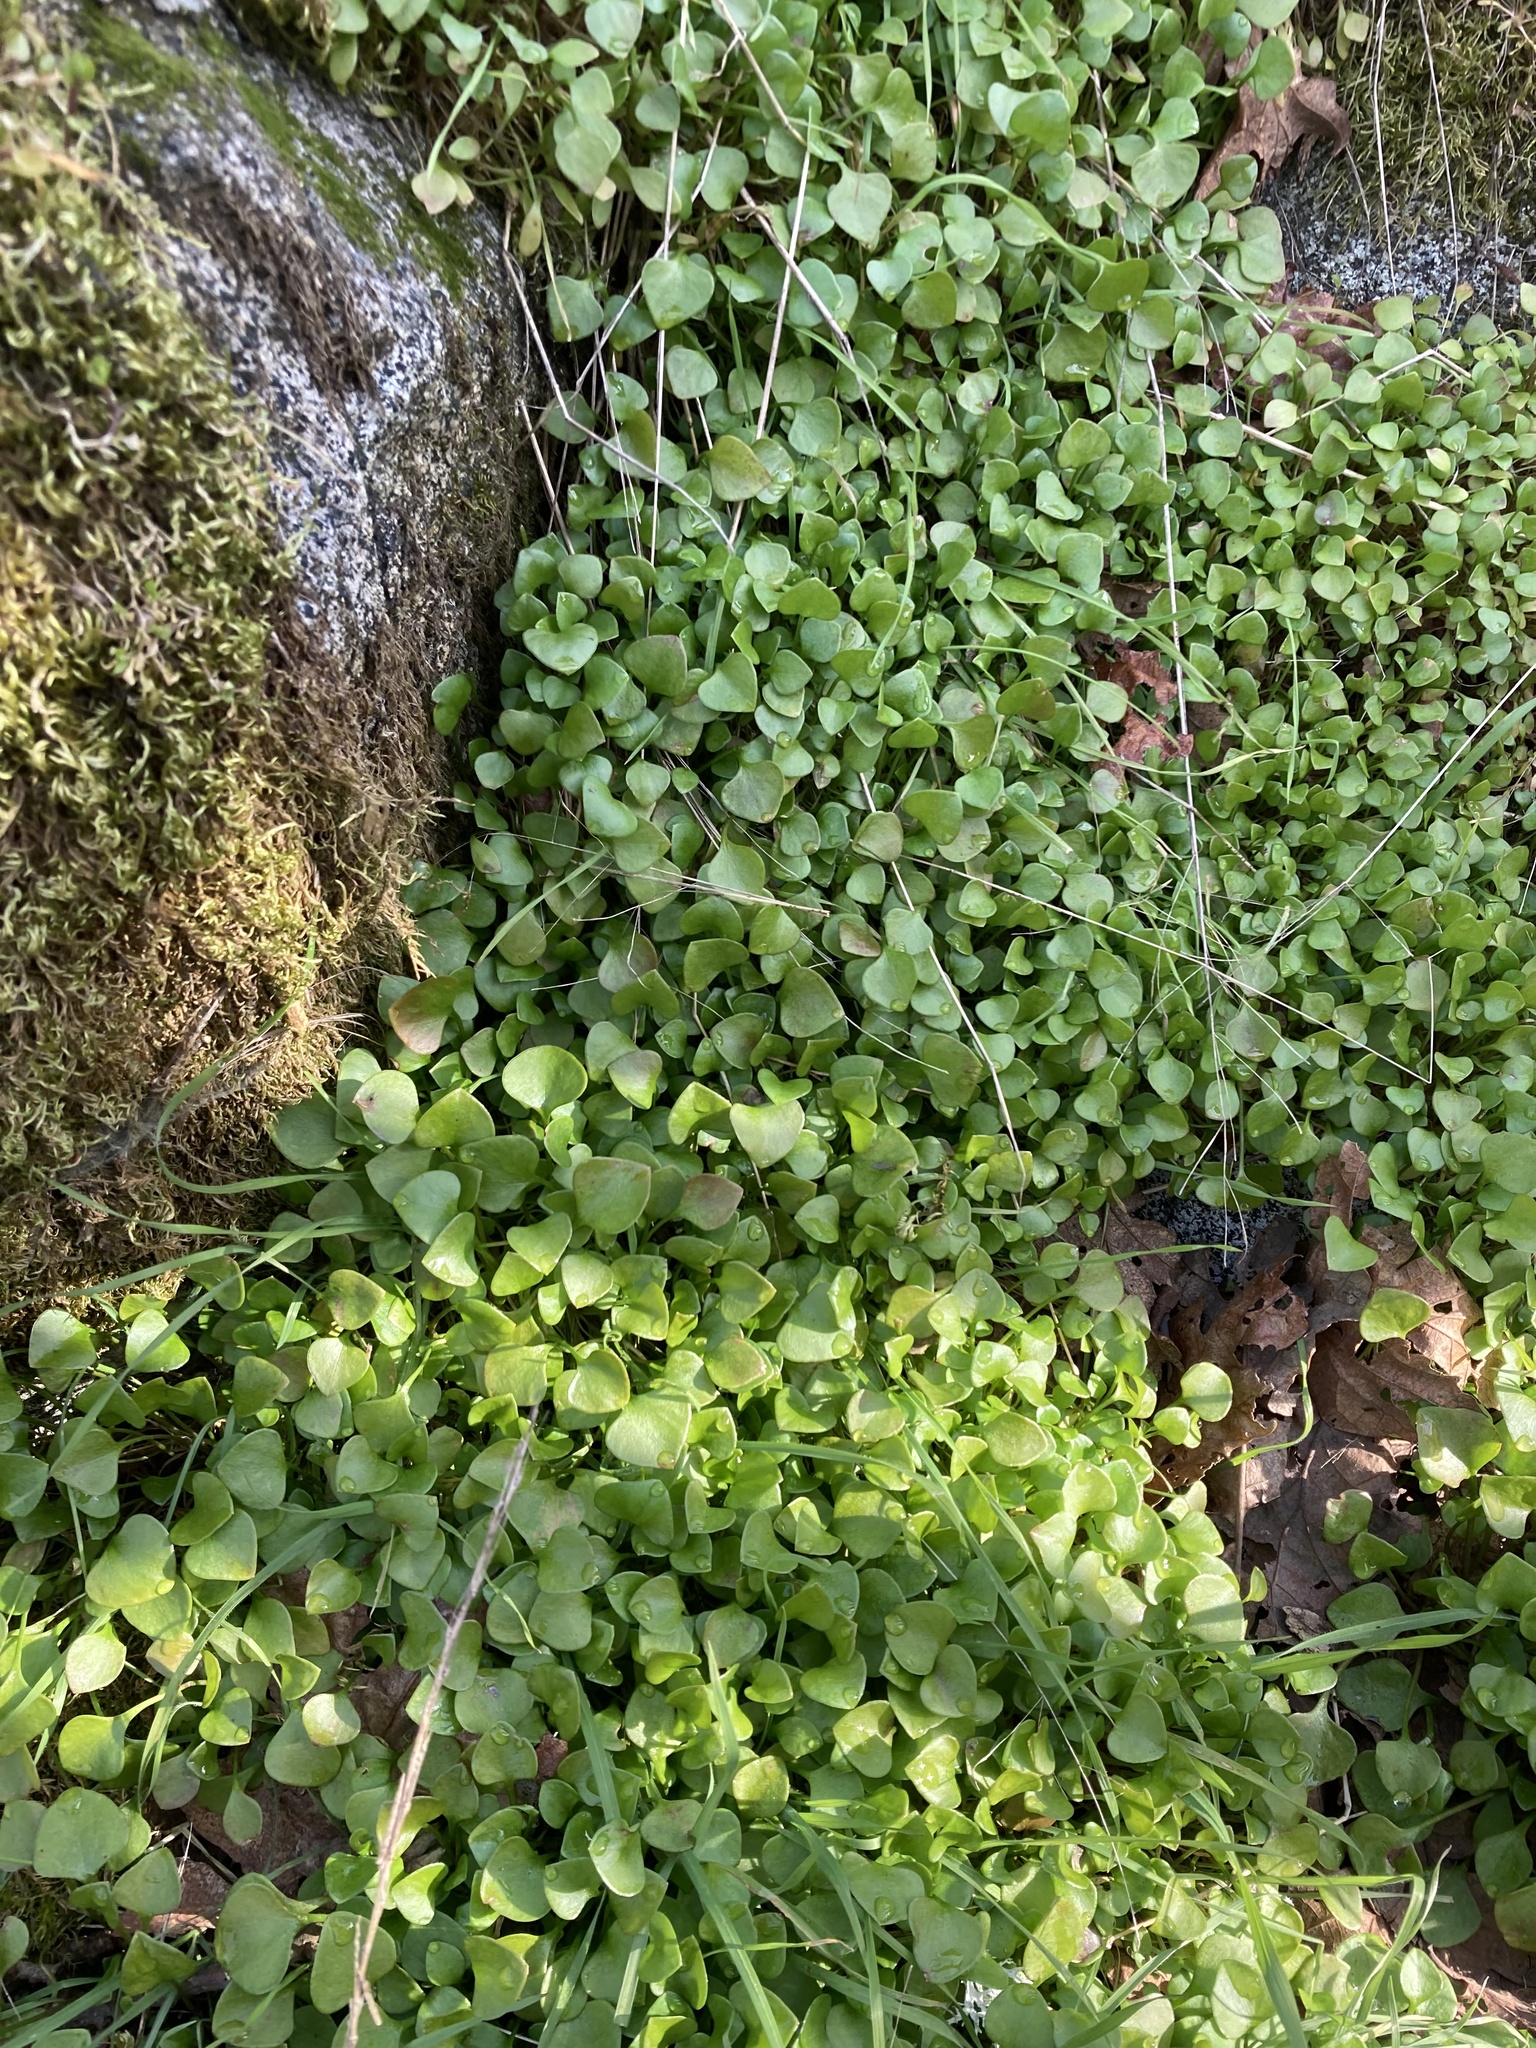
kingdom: Plantae
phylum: Tracheophyta
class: Magnoliopsida
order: Caryophyllales
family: Montiaceae
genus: Claytonia
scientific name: Claytonia perfoliata
